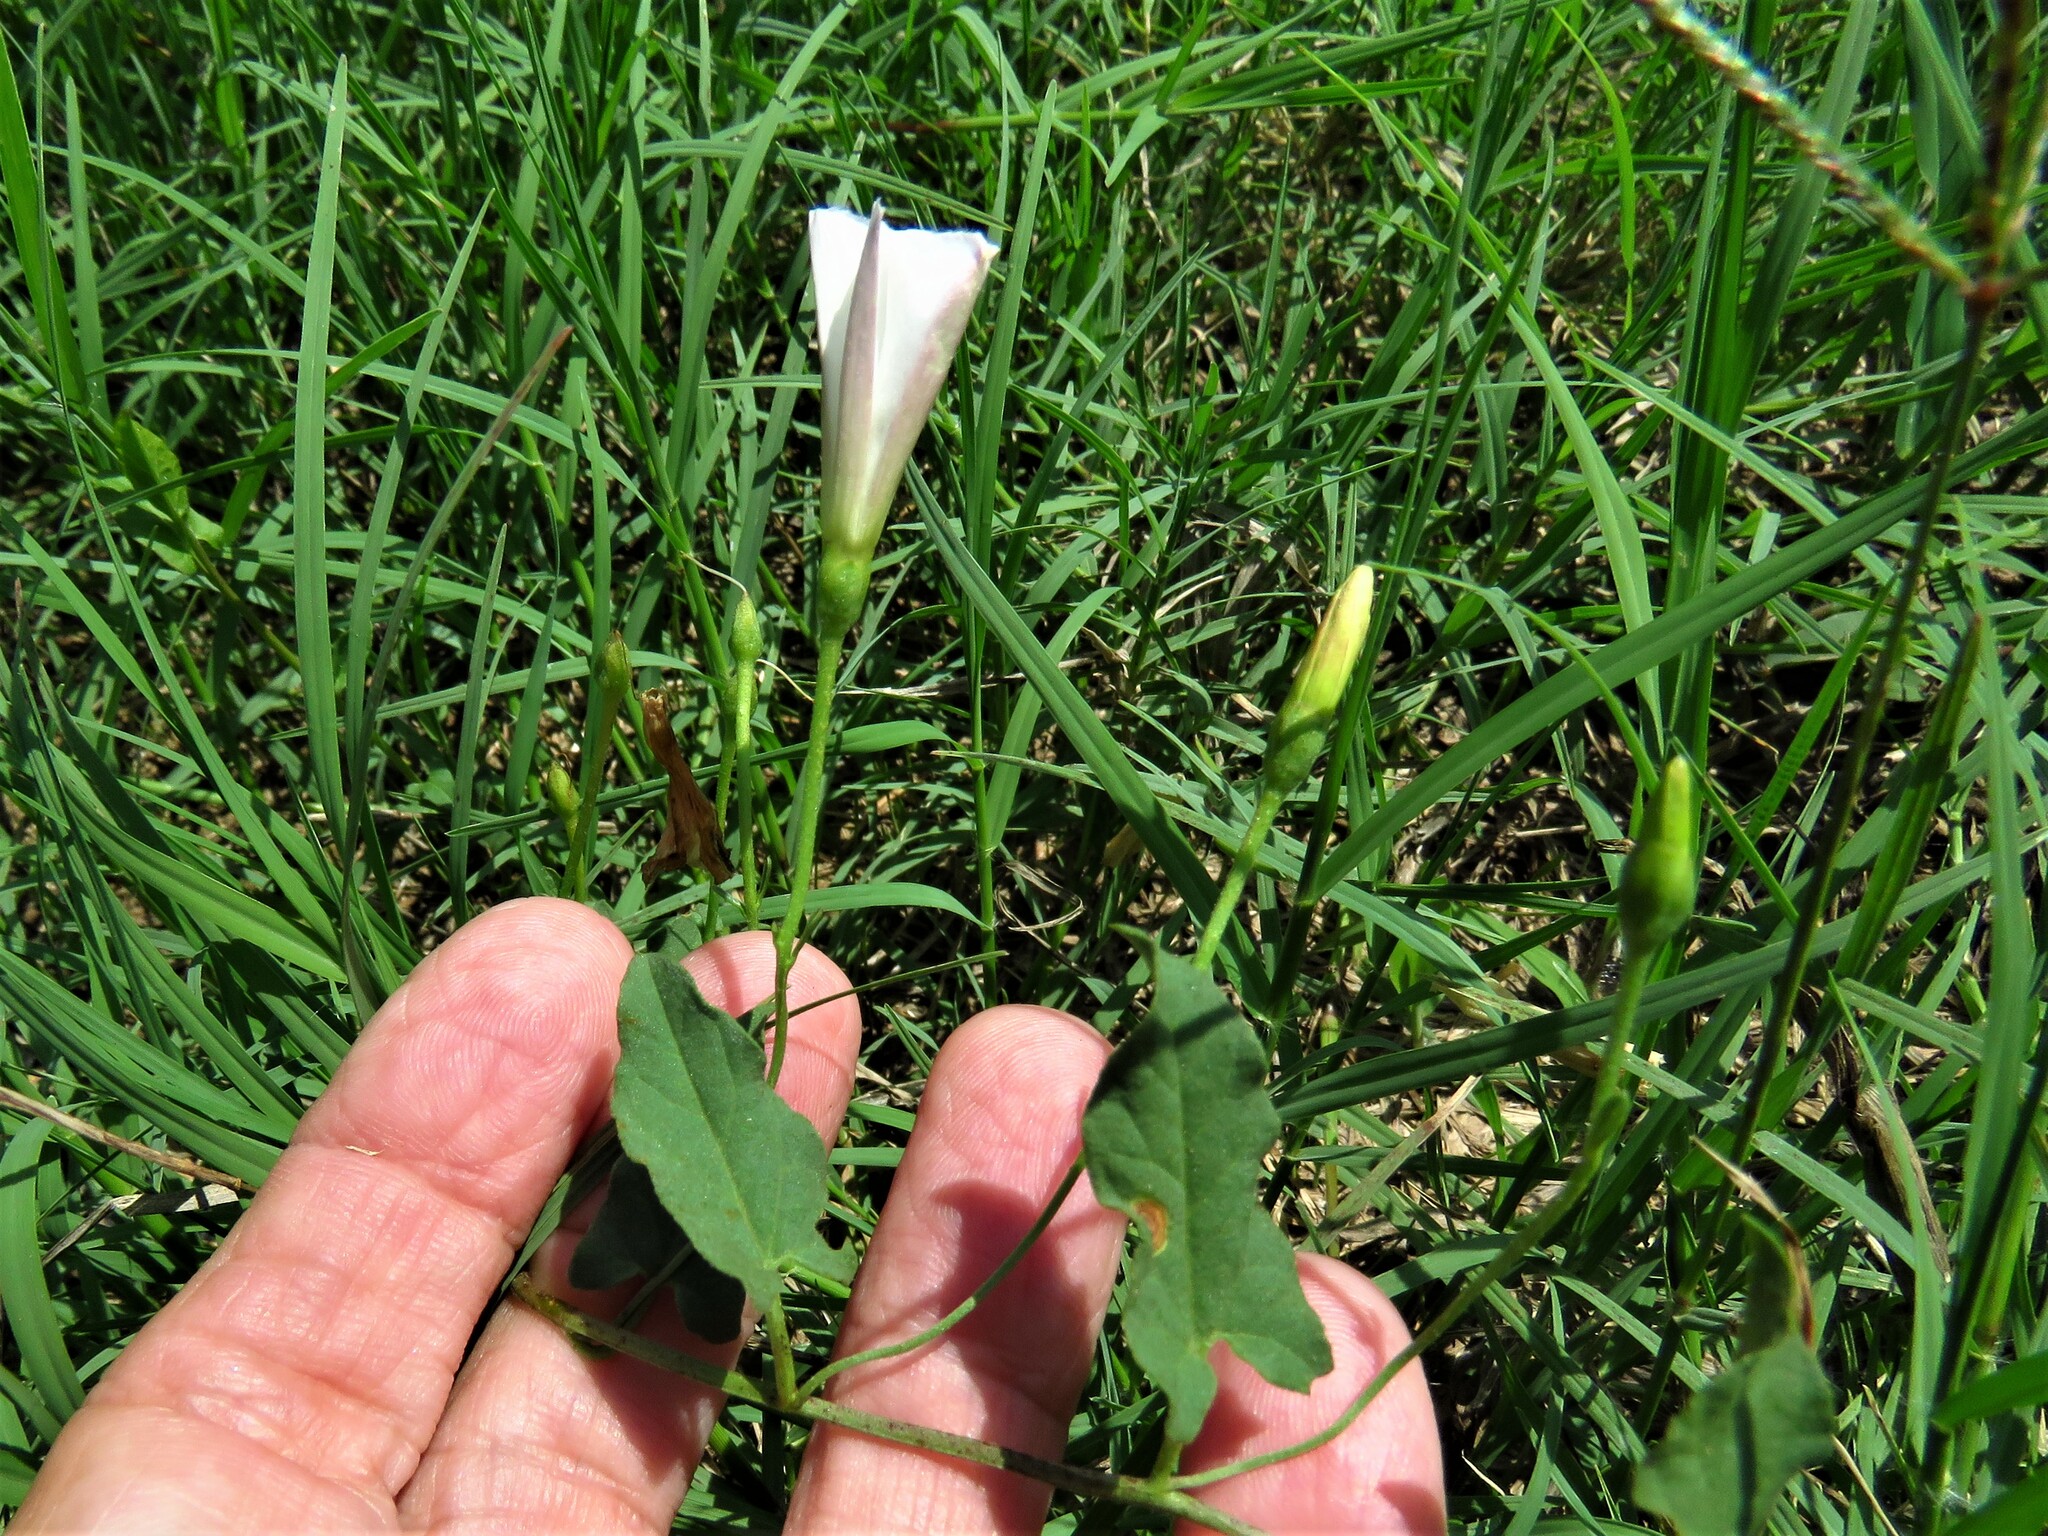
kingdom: Plantae
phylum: Tracheophyta
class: Magnoliopsida
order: Solanales
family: Convolvulaceae
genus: Convolvulus
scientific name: Convolvulus arvensis
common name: Field bindweed
